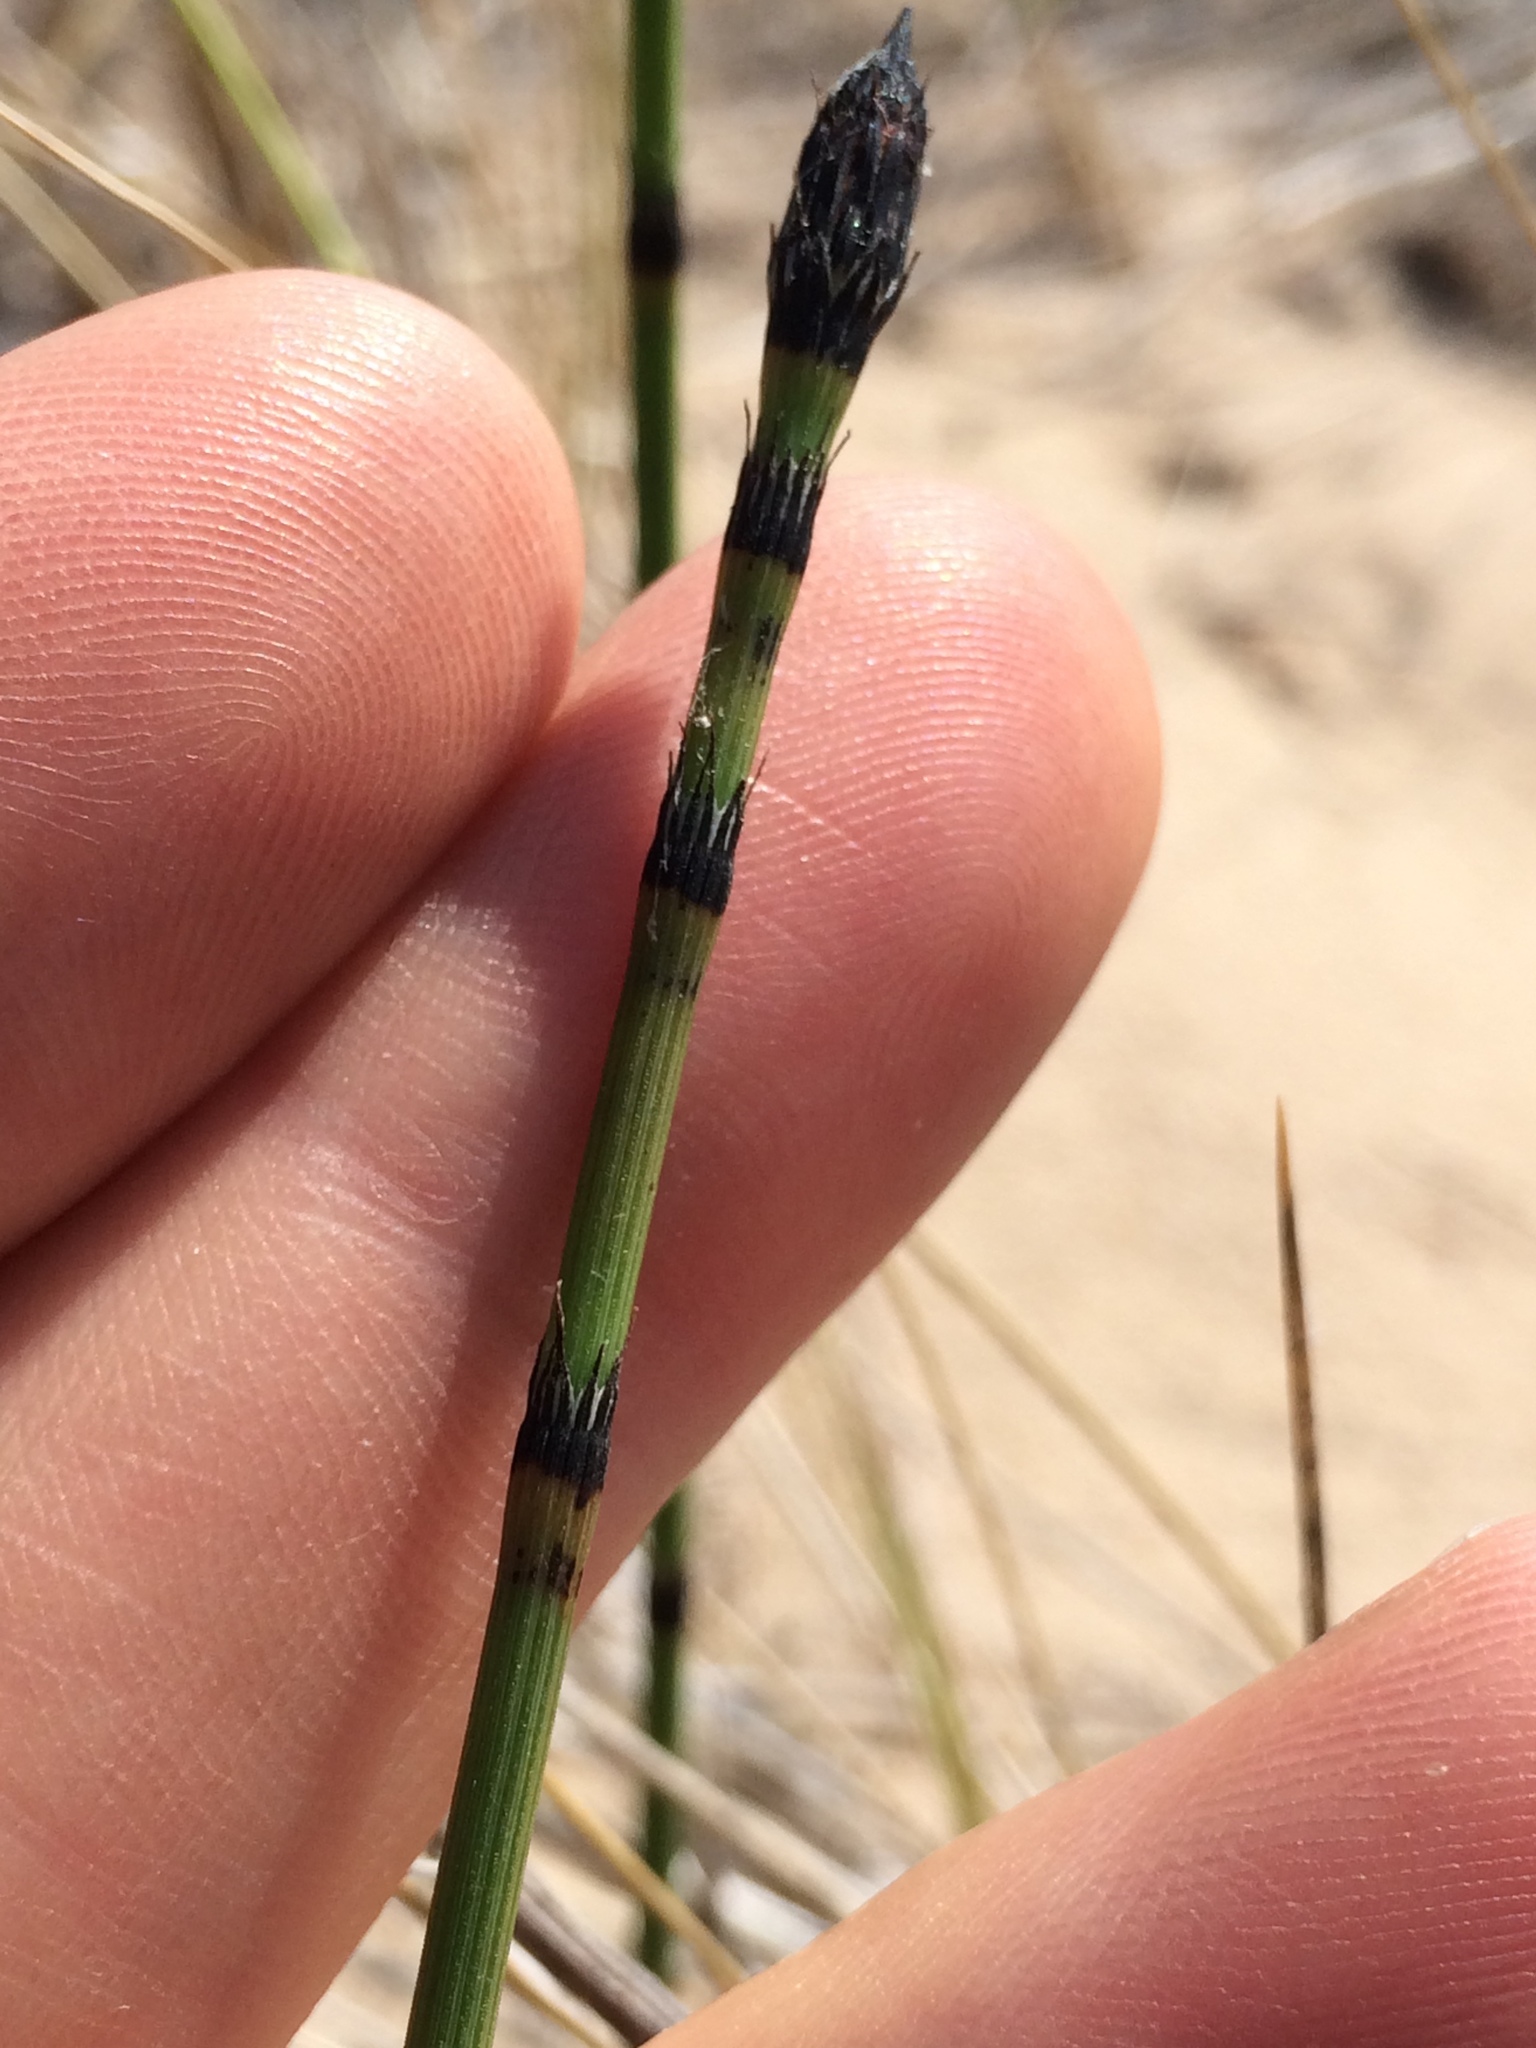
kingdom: Plantae
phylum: Tracheophyta
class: Polypodiopsida
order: Equisetales
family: Equisetaceae
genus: Equisetum
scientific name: Equisetum variegatum
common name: Variegated horsetail
